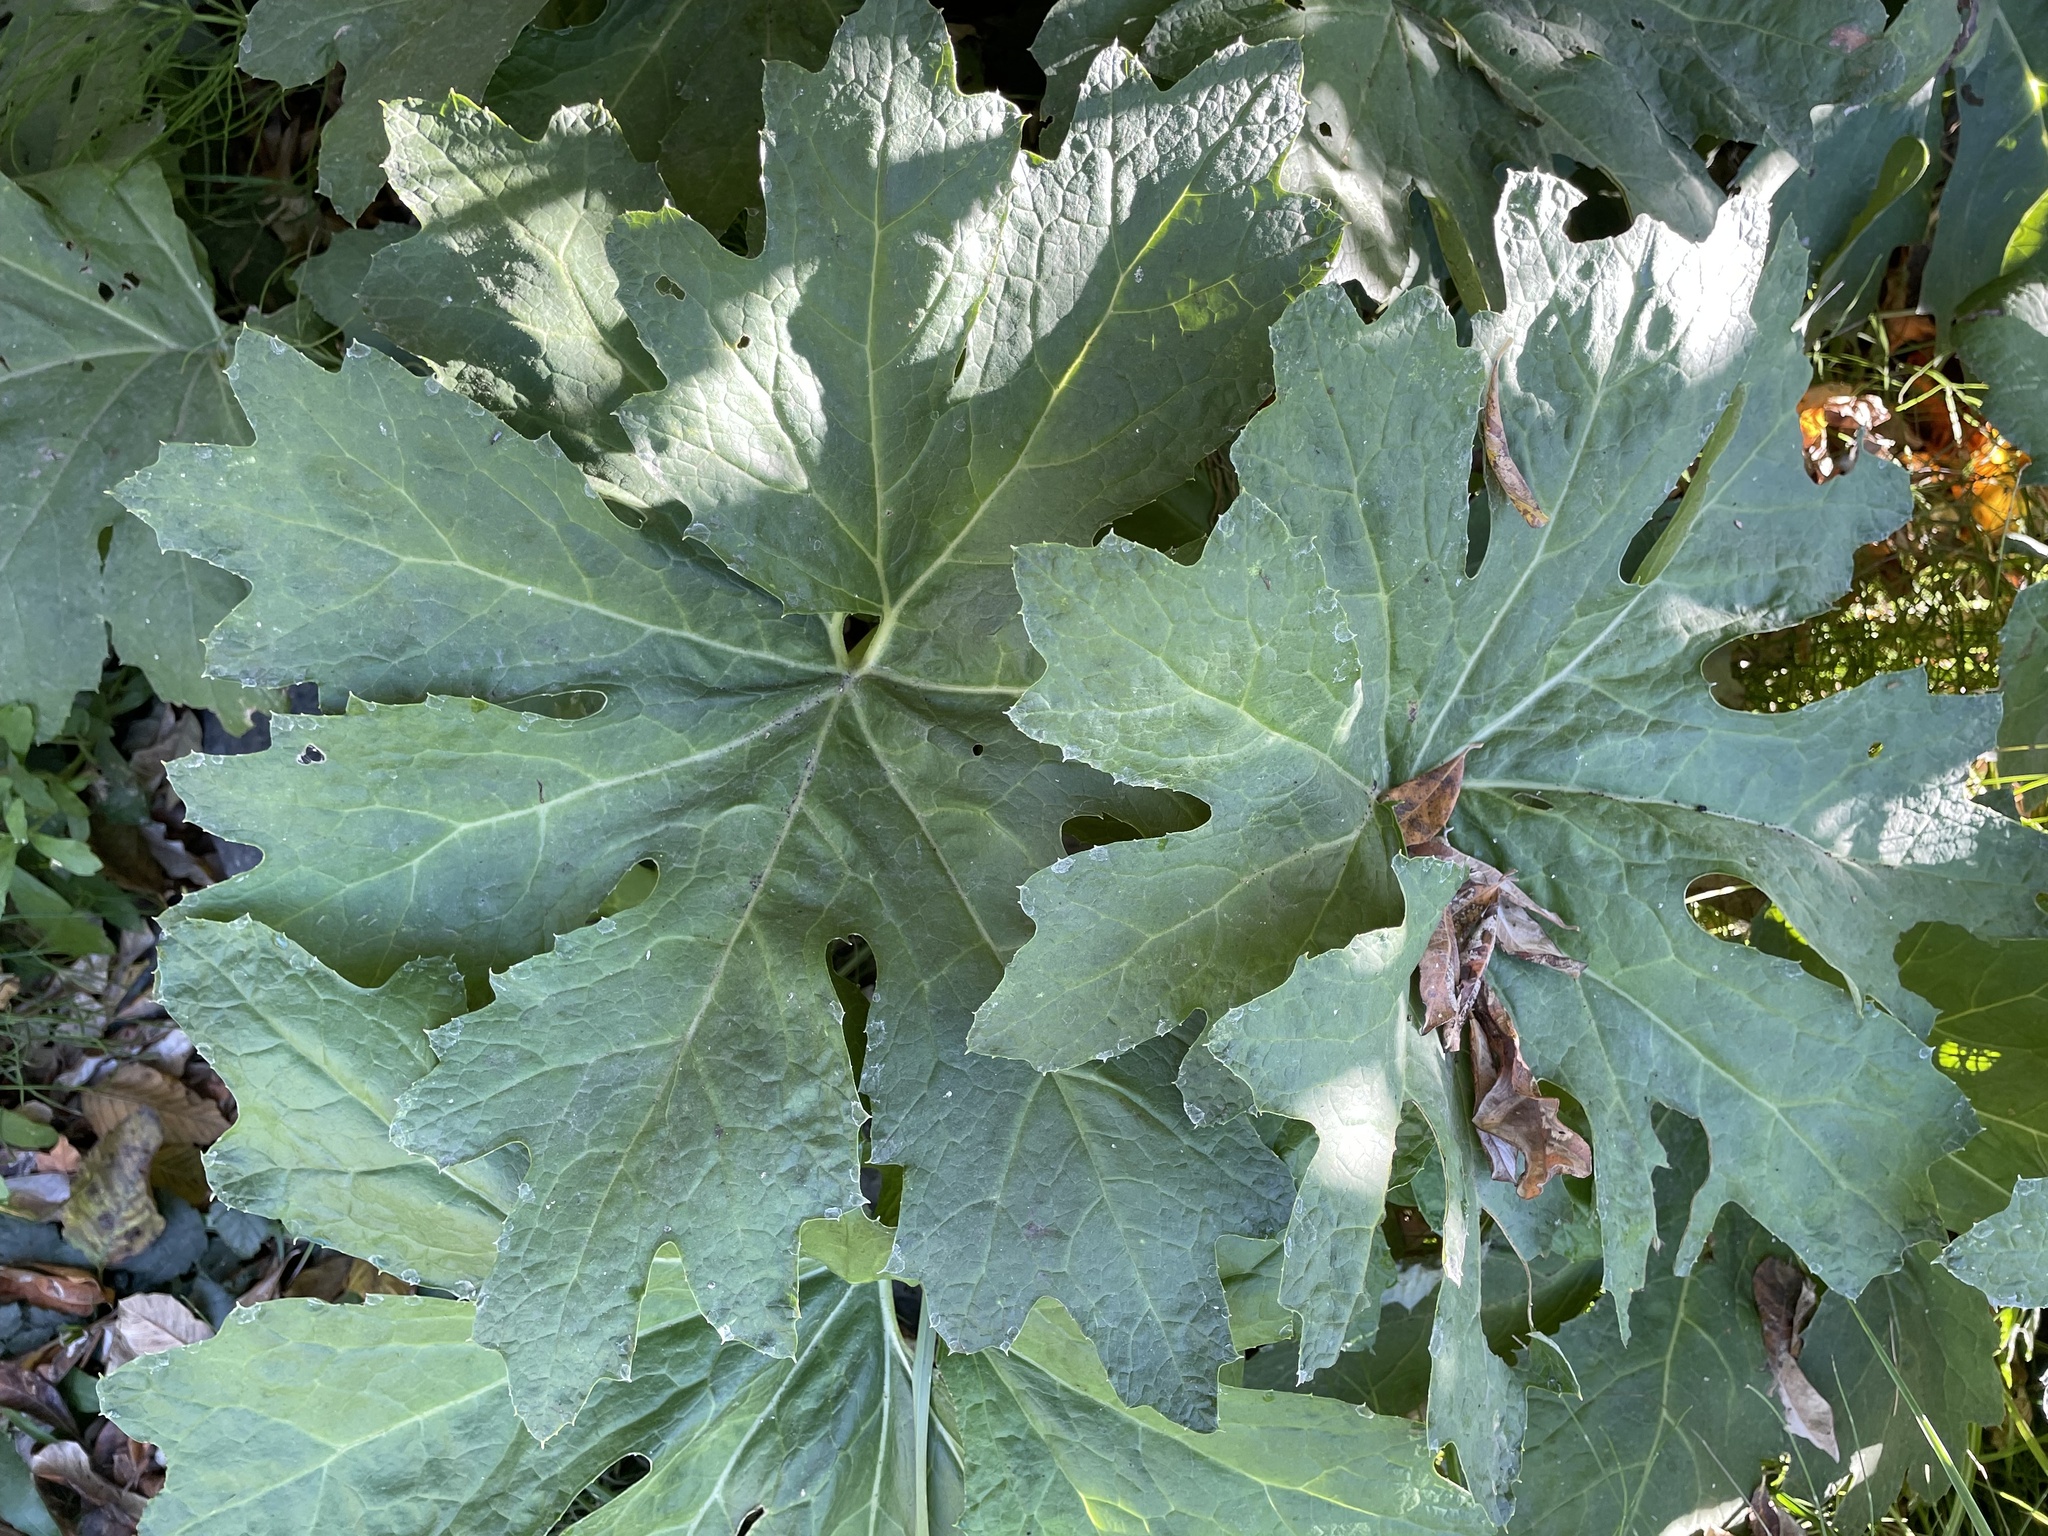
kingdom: Plantae
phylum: Tracheophyta
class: Magnoliopsida
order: Asterales
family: Asteraceae
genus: Petasites
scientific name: Petasites frigidus
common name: Arctic butterbur
